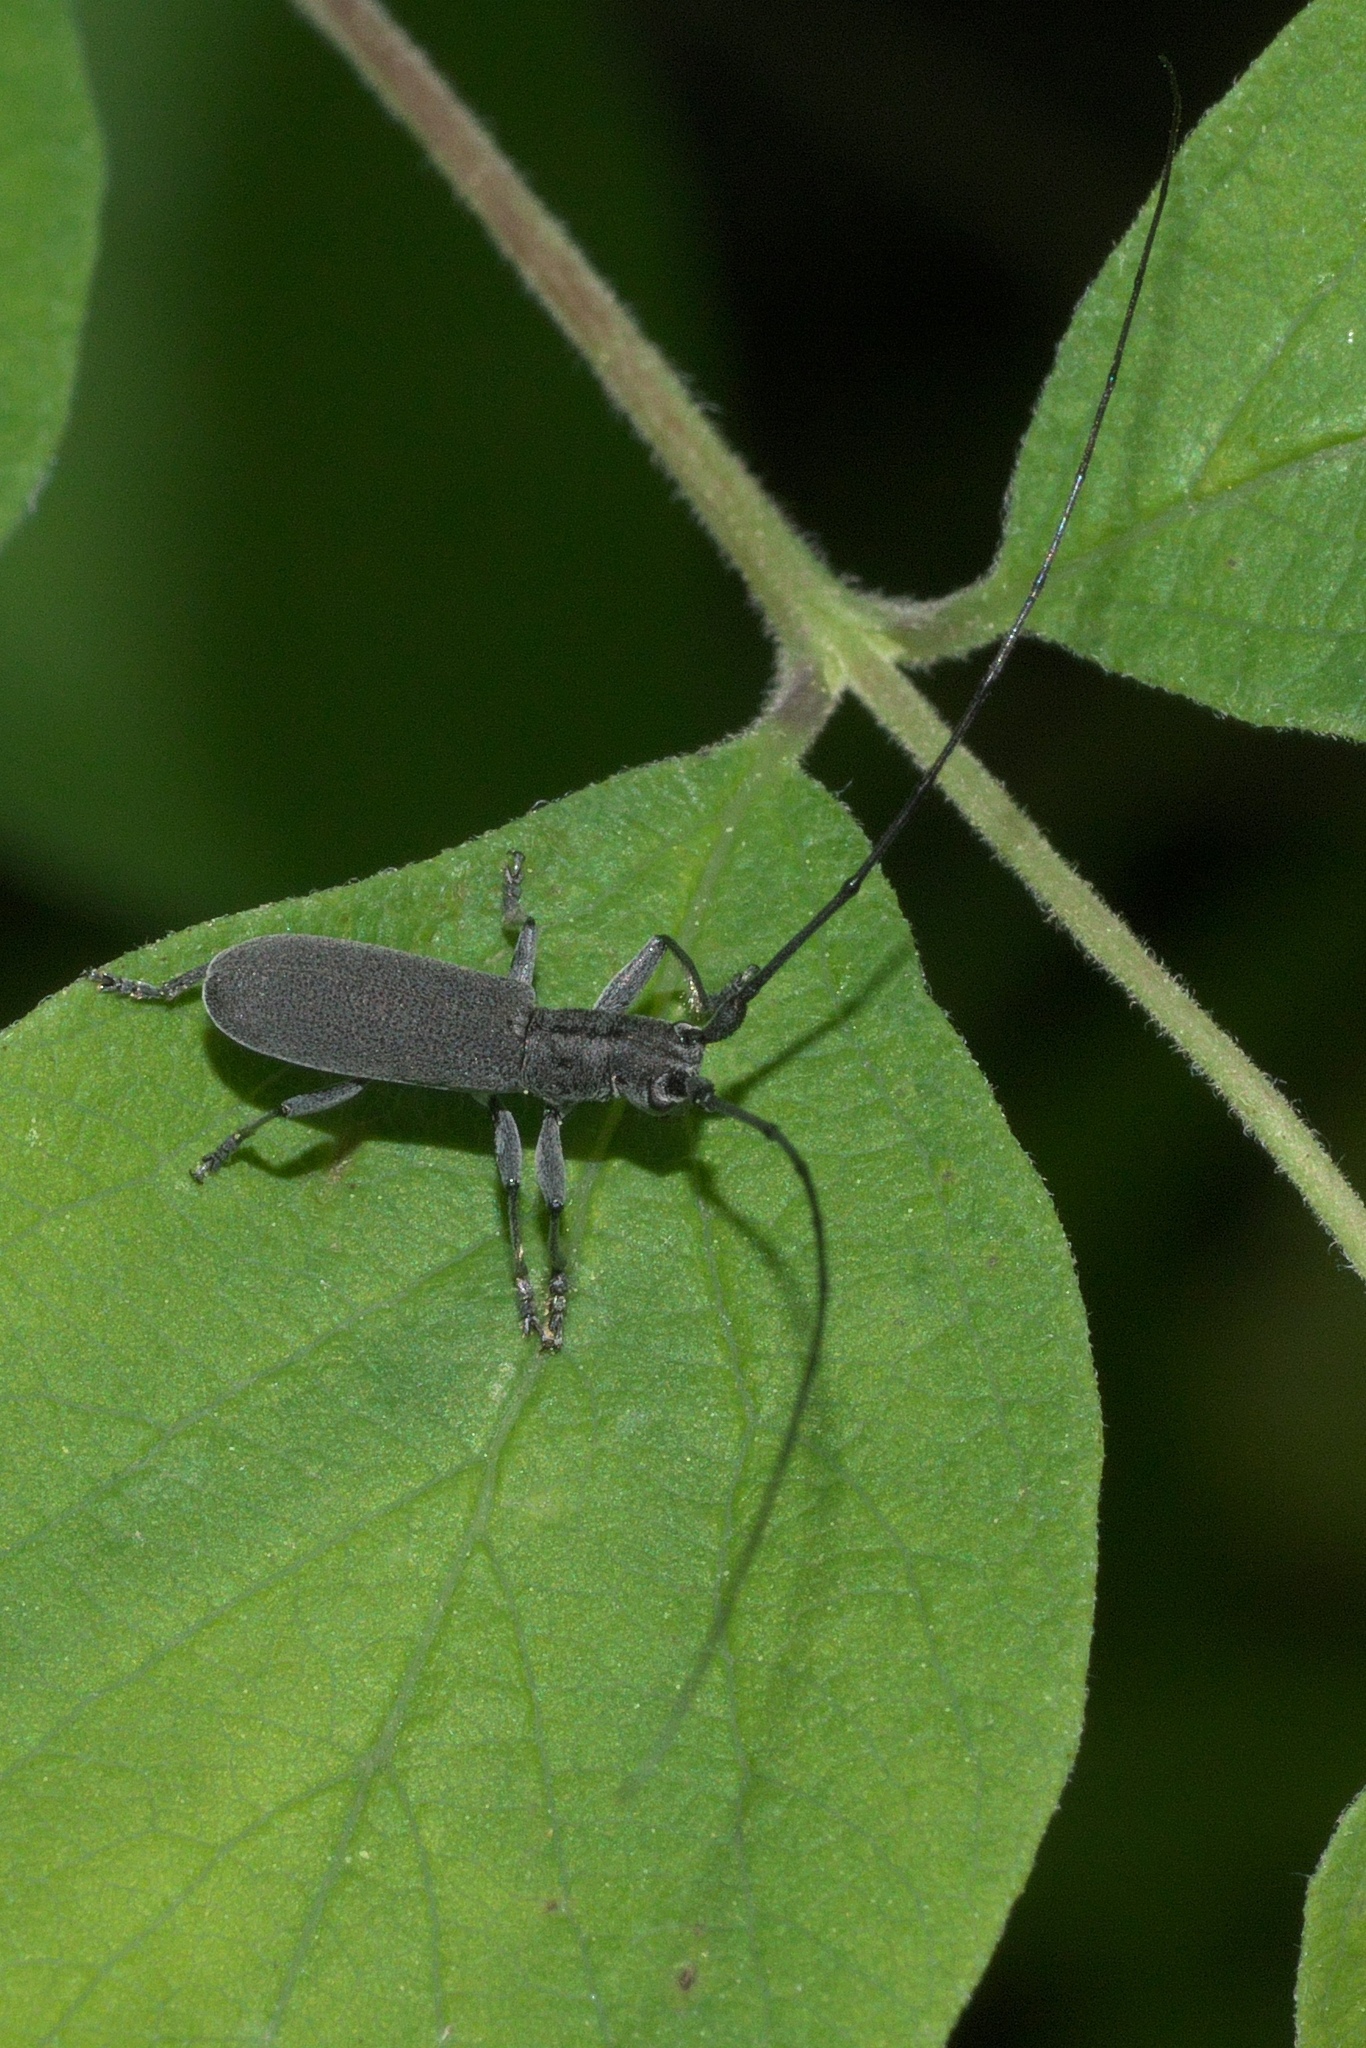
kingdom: Animalia
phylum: Arthropoda
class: Insecta
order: Coleoptera
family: Cerambycidae
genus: Dorcaschema
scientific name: Dorcaschema nigrum
